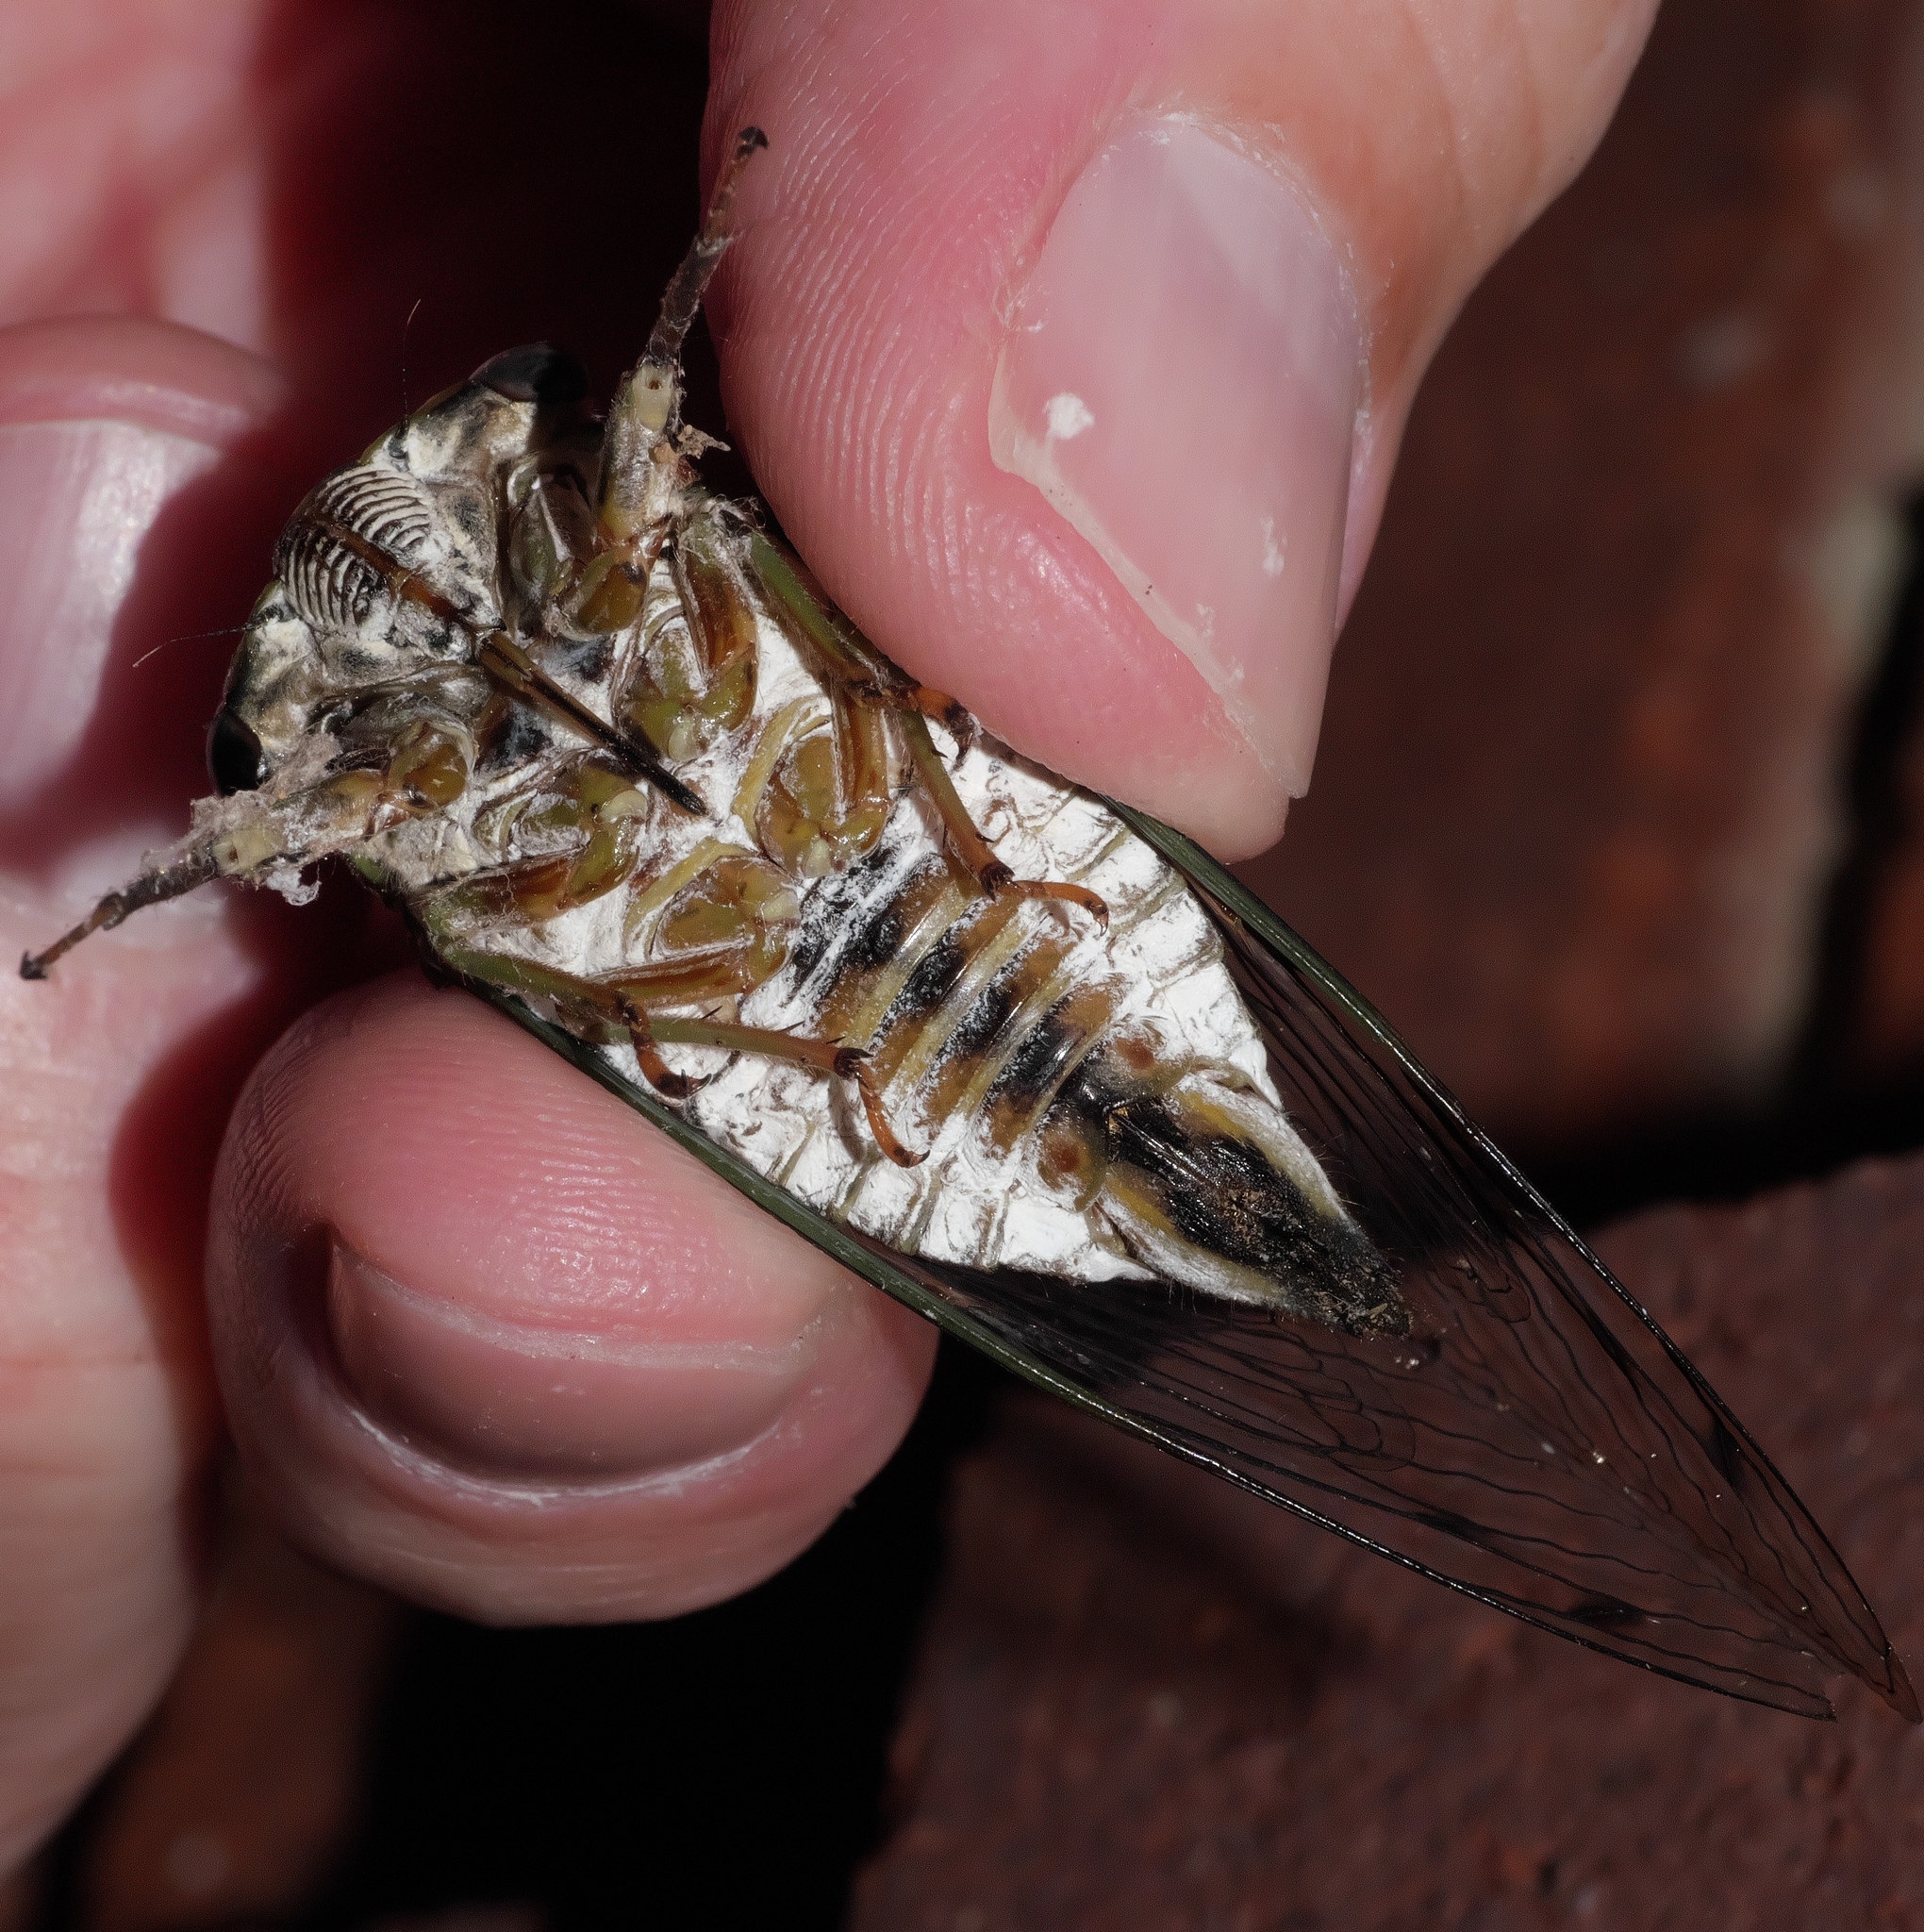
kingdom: Animalia
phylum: Arthropoda
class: Insecta
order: Hemiptera
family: Cicadidae
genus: Neotibicen
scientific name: Neotibicen pruinosus
